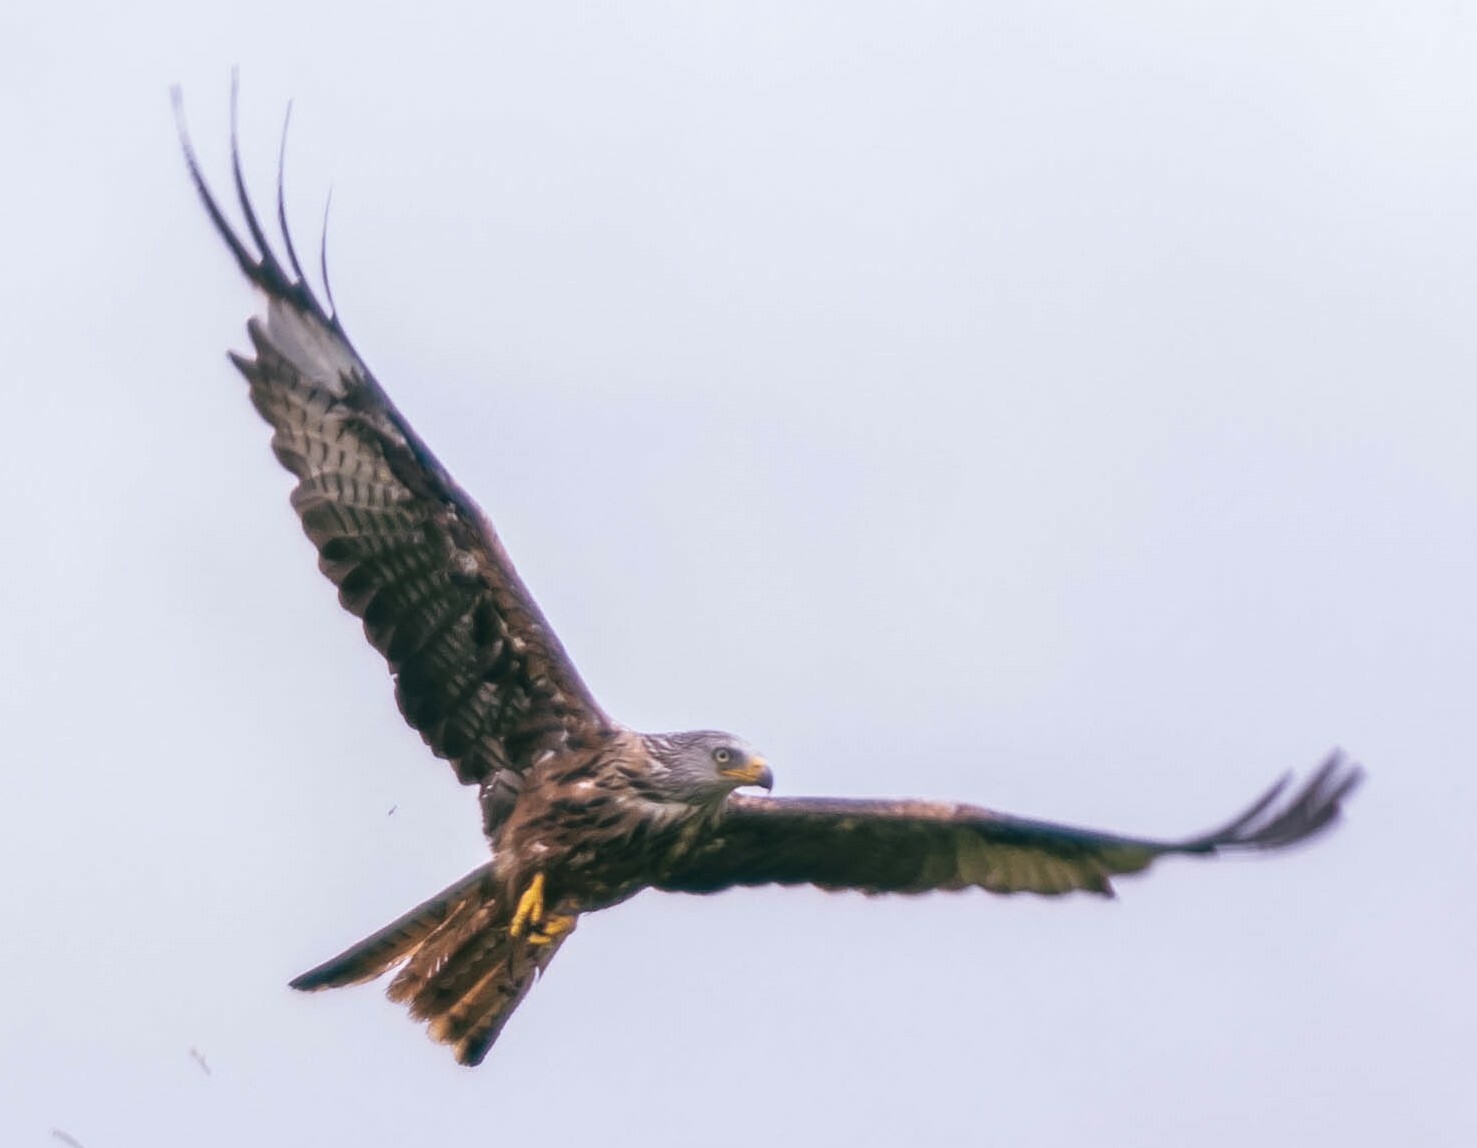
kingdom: Animalia
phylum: Chordata
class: Aves
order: Accipitriformes
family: Accipitridae
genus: Milvus
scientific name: Milvus milvus
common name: Red kite
